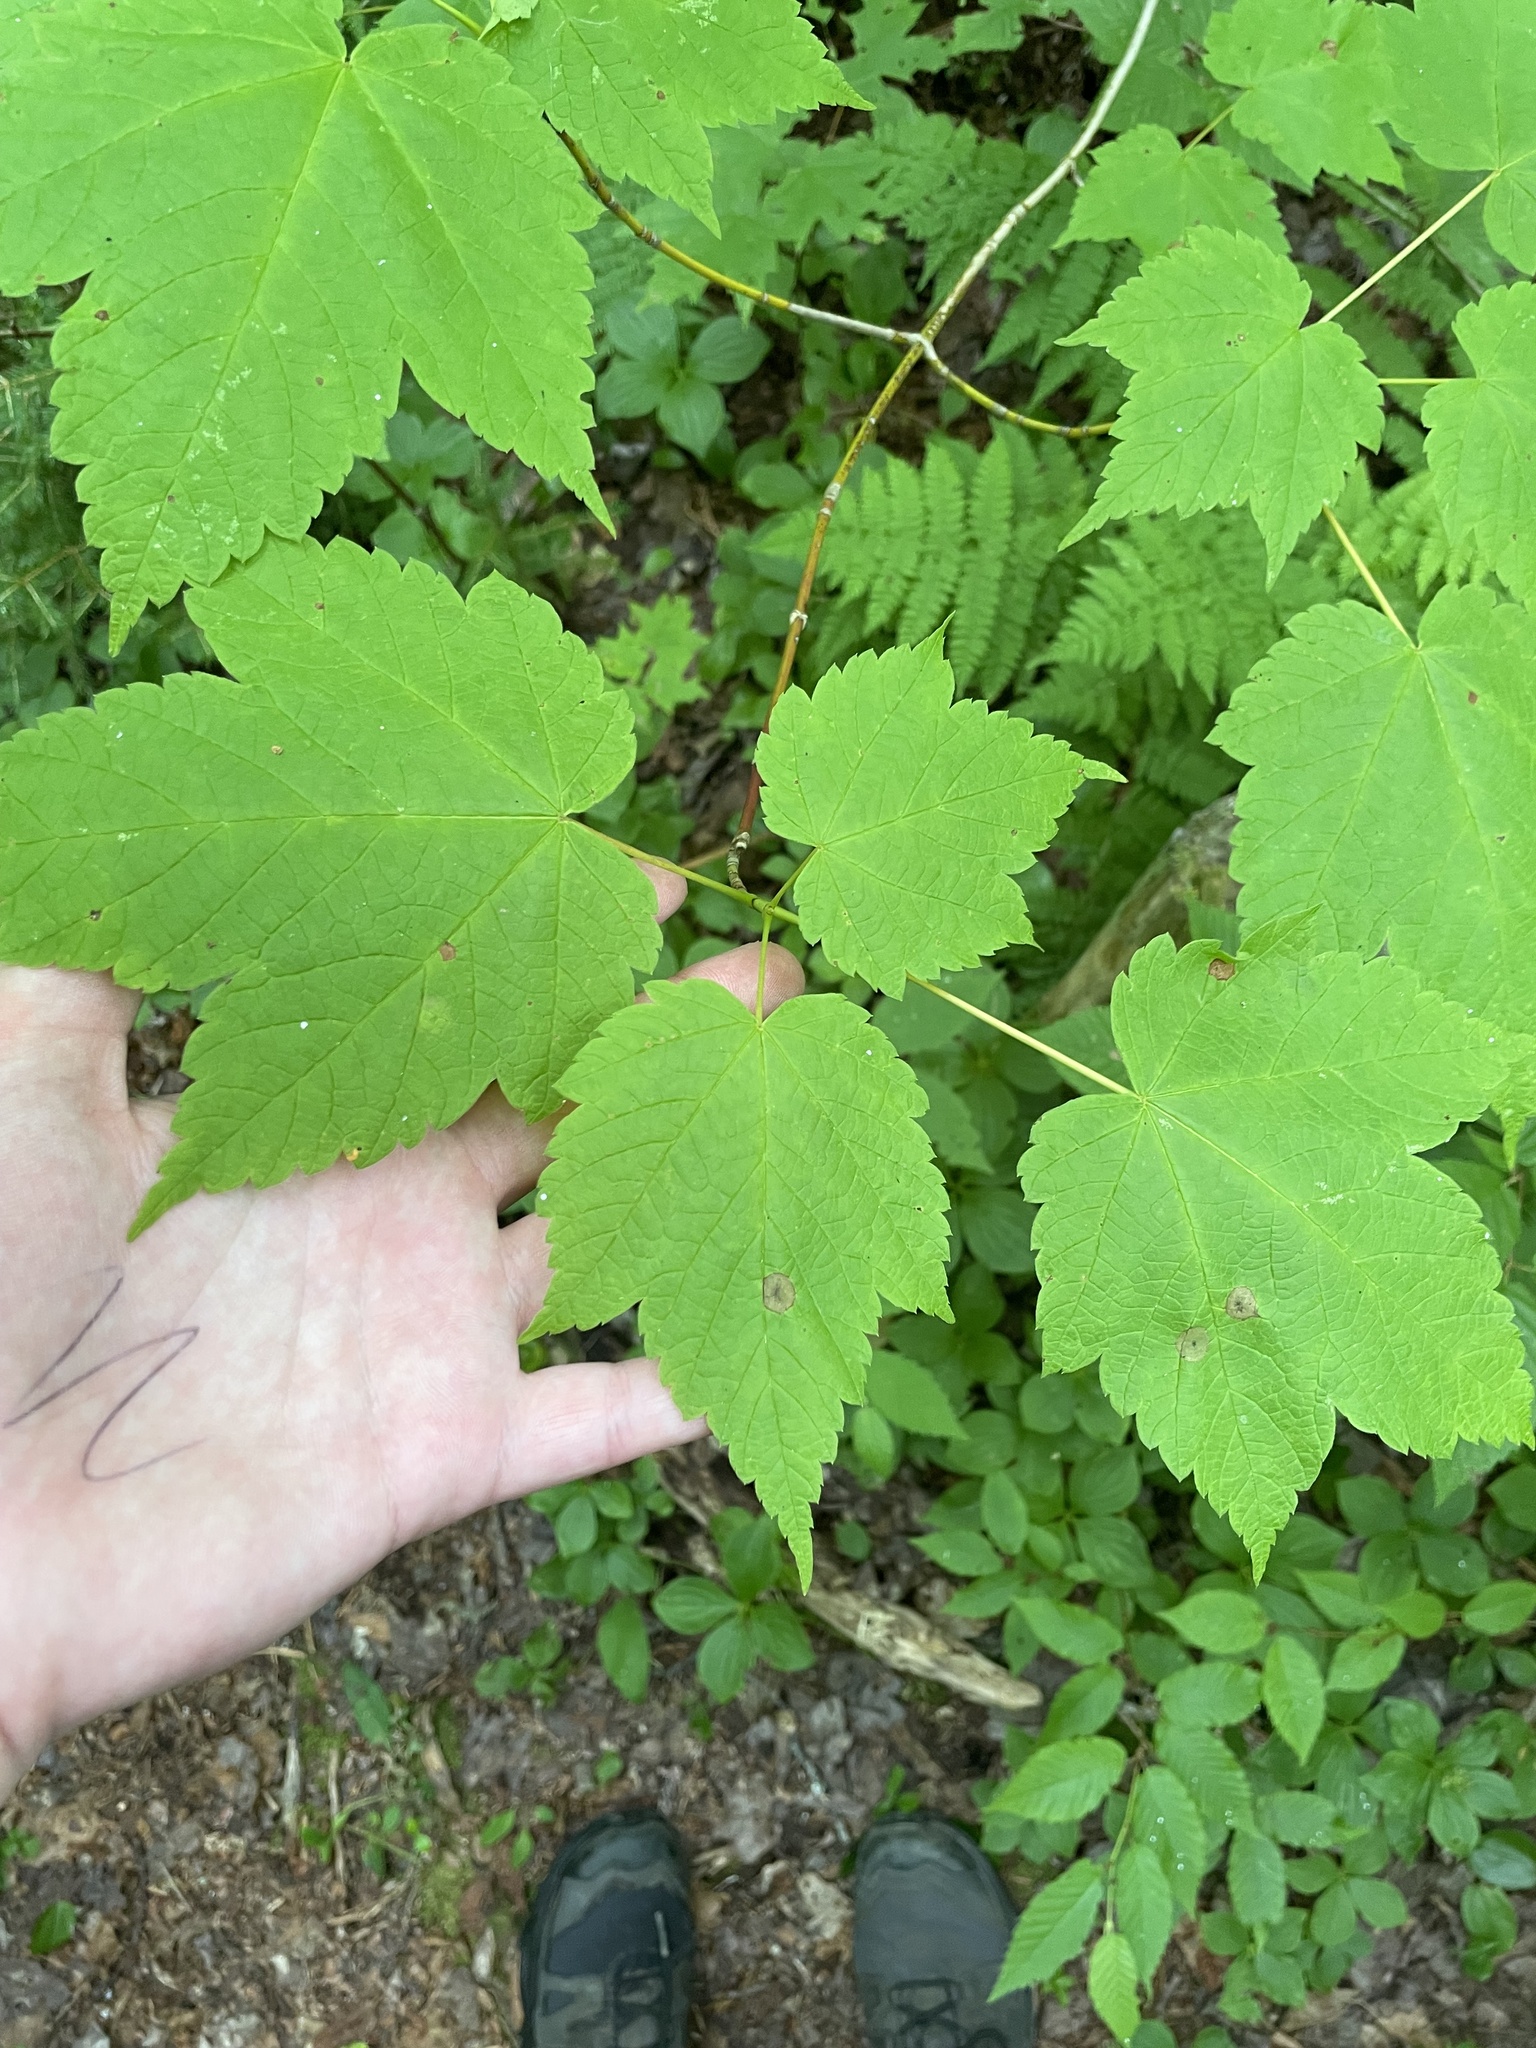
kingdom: Plantae
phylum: Tracheophyta
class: Magnoliopsida
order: Sapindales
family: Sapindaceae
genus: Acer
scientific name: Acer spicatum
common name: Mountain maple
